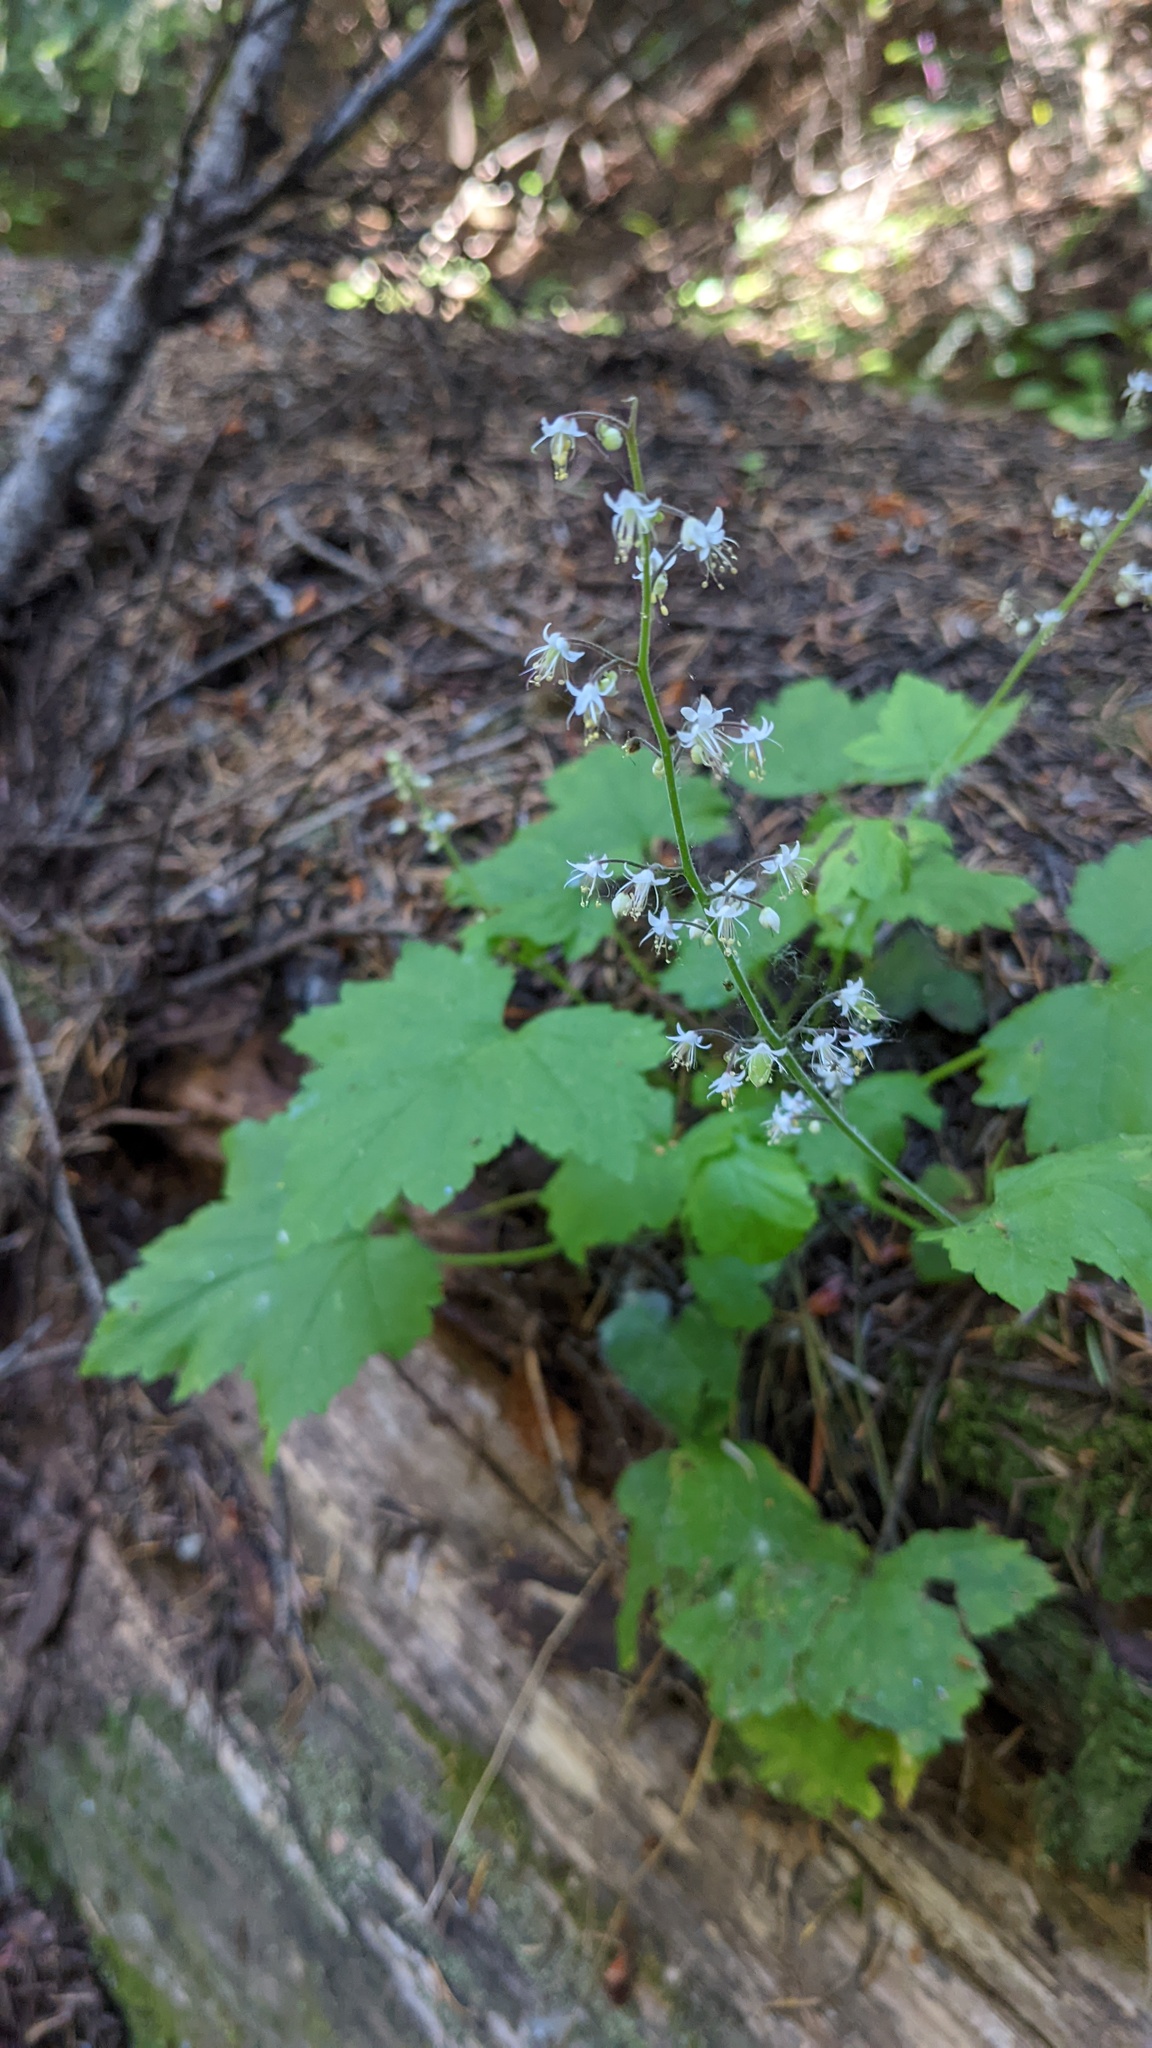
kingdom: Plantae
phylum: Tracheophyta
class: Magnoliopsida
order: Saxifragales
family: Saxifragaceae
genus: Tiarella
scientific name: Tiarella trifoliata
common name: Sugar-scoop
